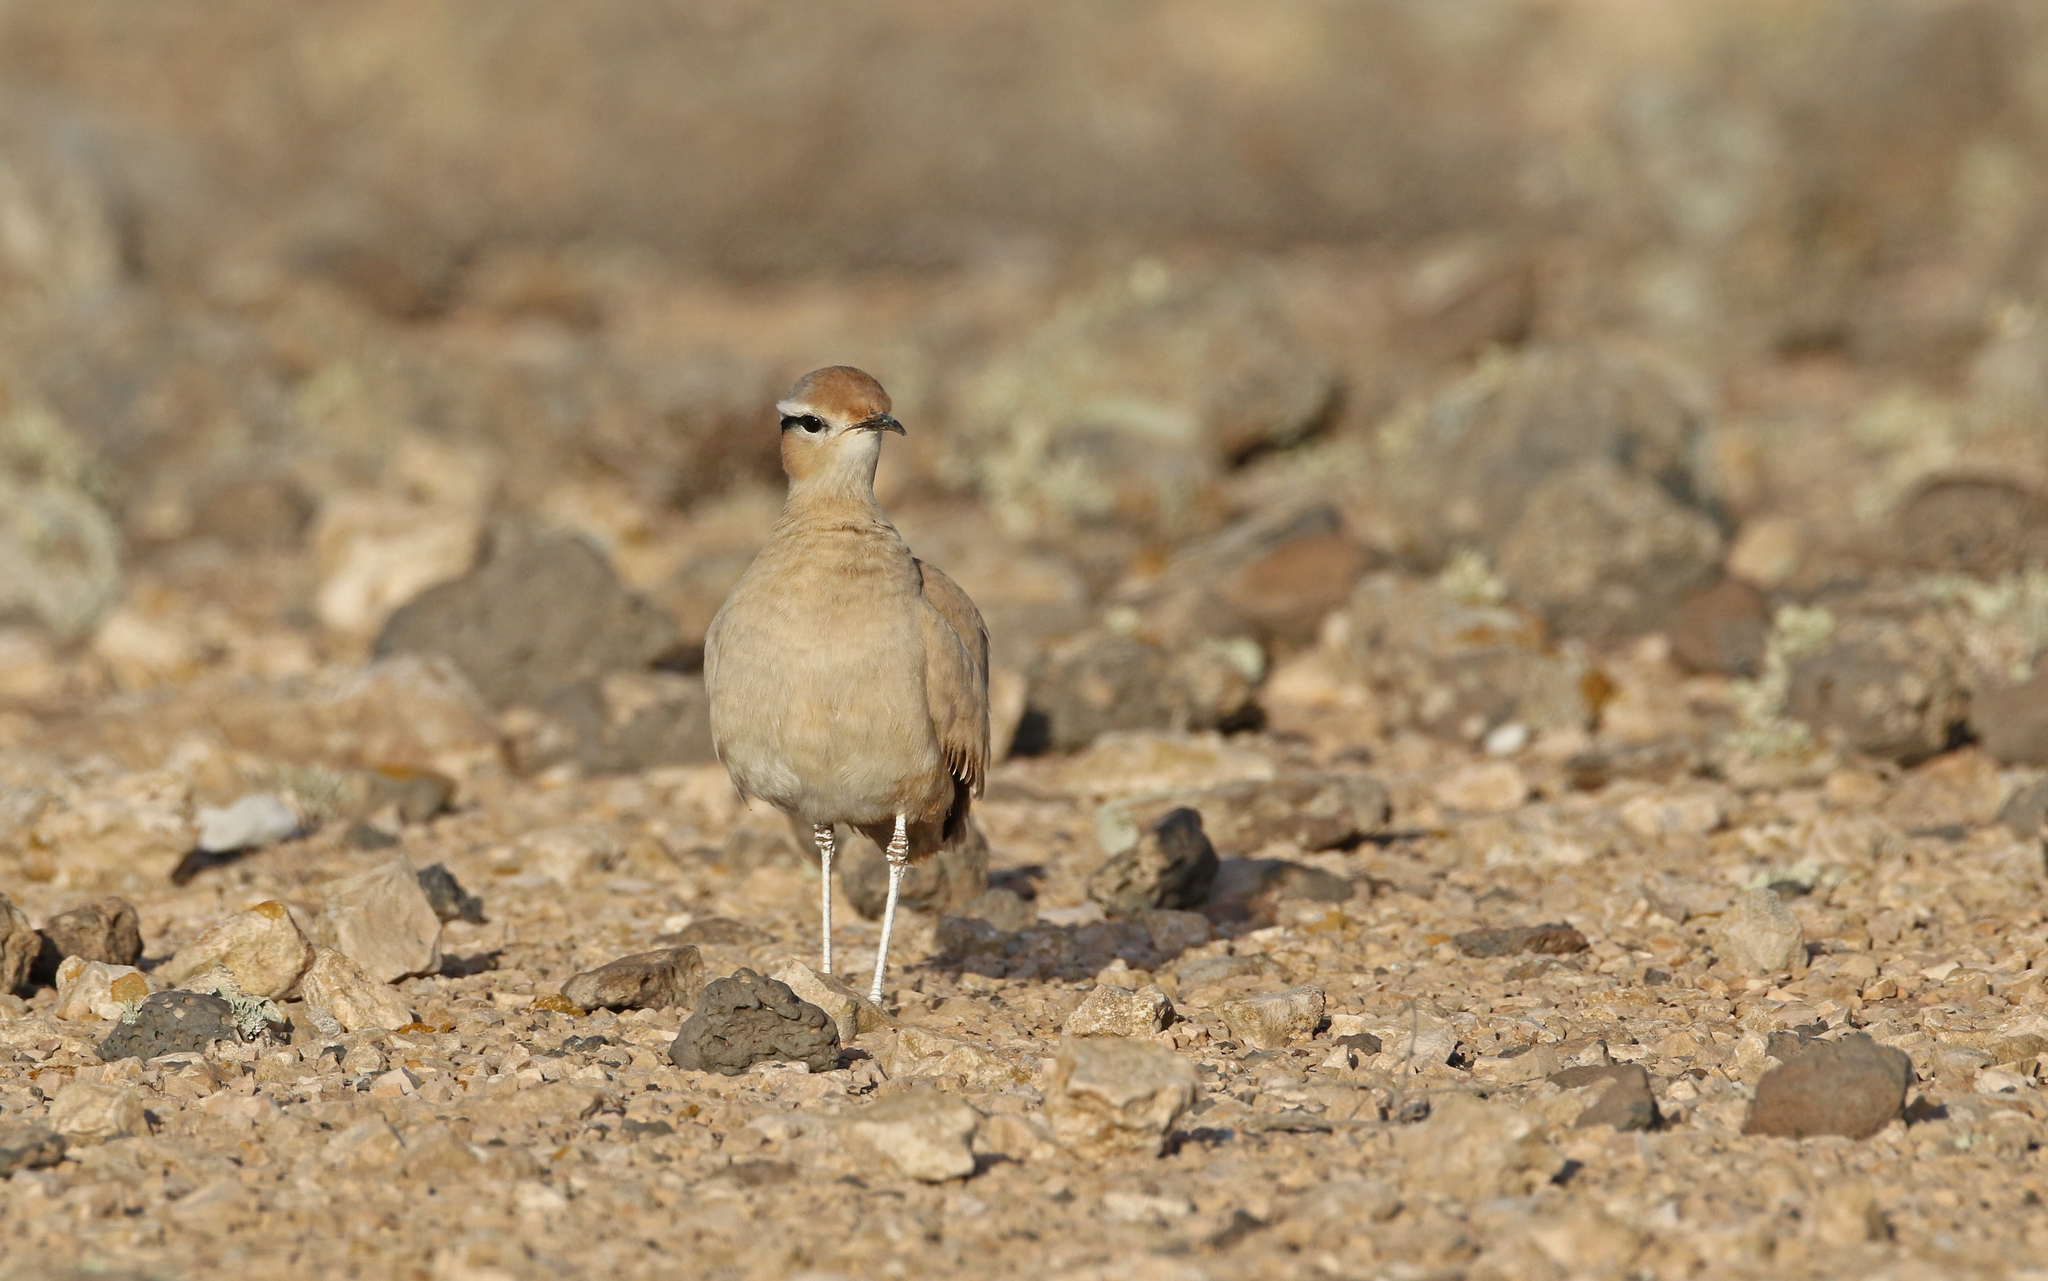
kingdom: Animalia
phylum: Chordata
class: Aves
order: Charadriiformes
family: Glareolidae
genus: Cursorius
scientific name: Cursorius cursor
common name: Cream-colored courser
